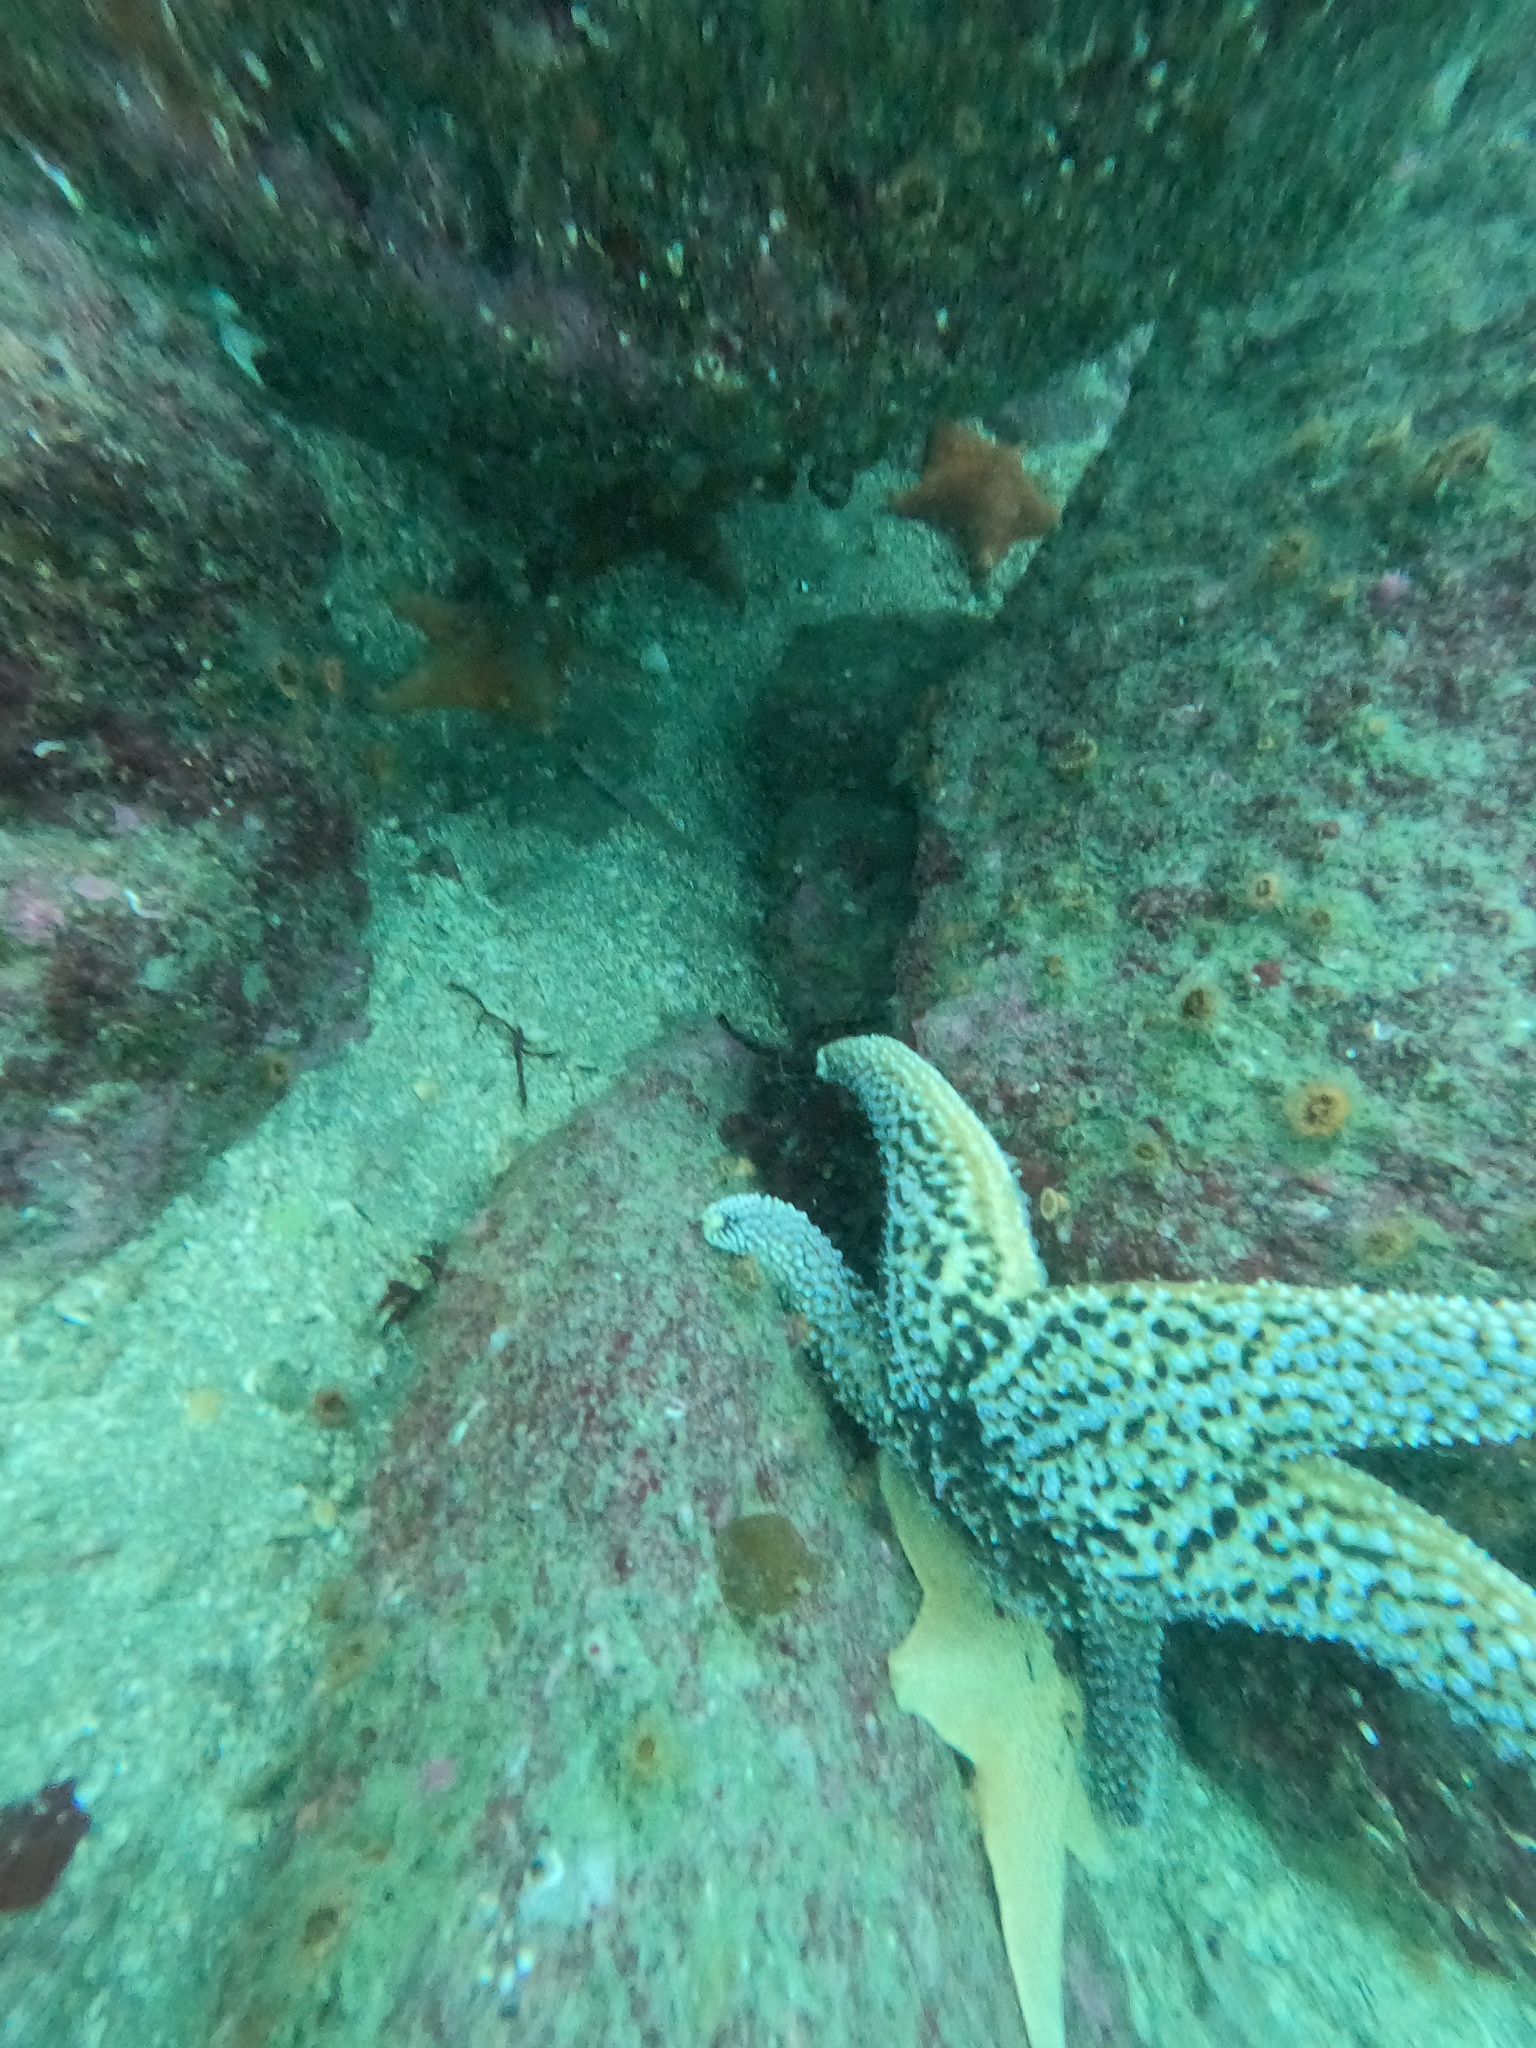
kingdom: Animalia
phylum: Echinodermata
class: Asteroidea
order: Forcipulatida
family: Asteriidae
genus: Pisaster
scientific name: Pisaster giganteus
